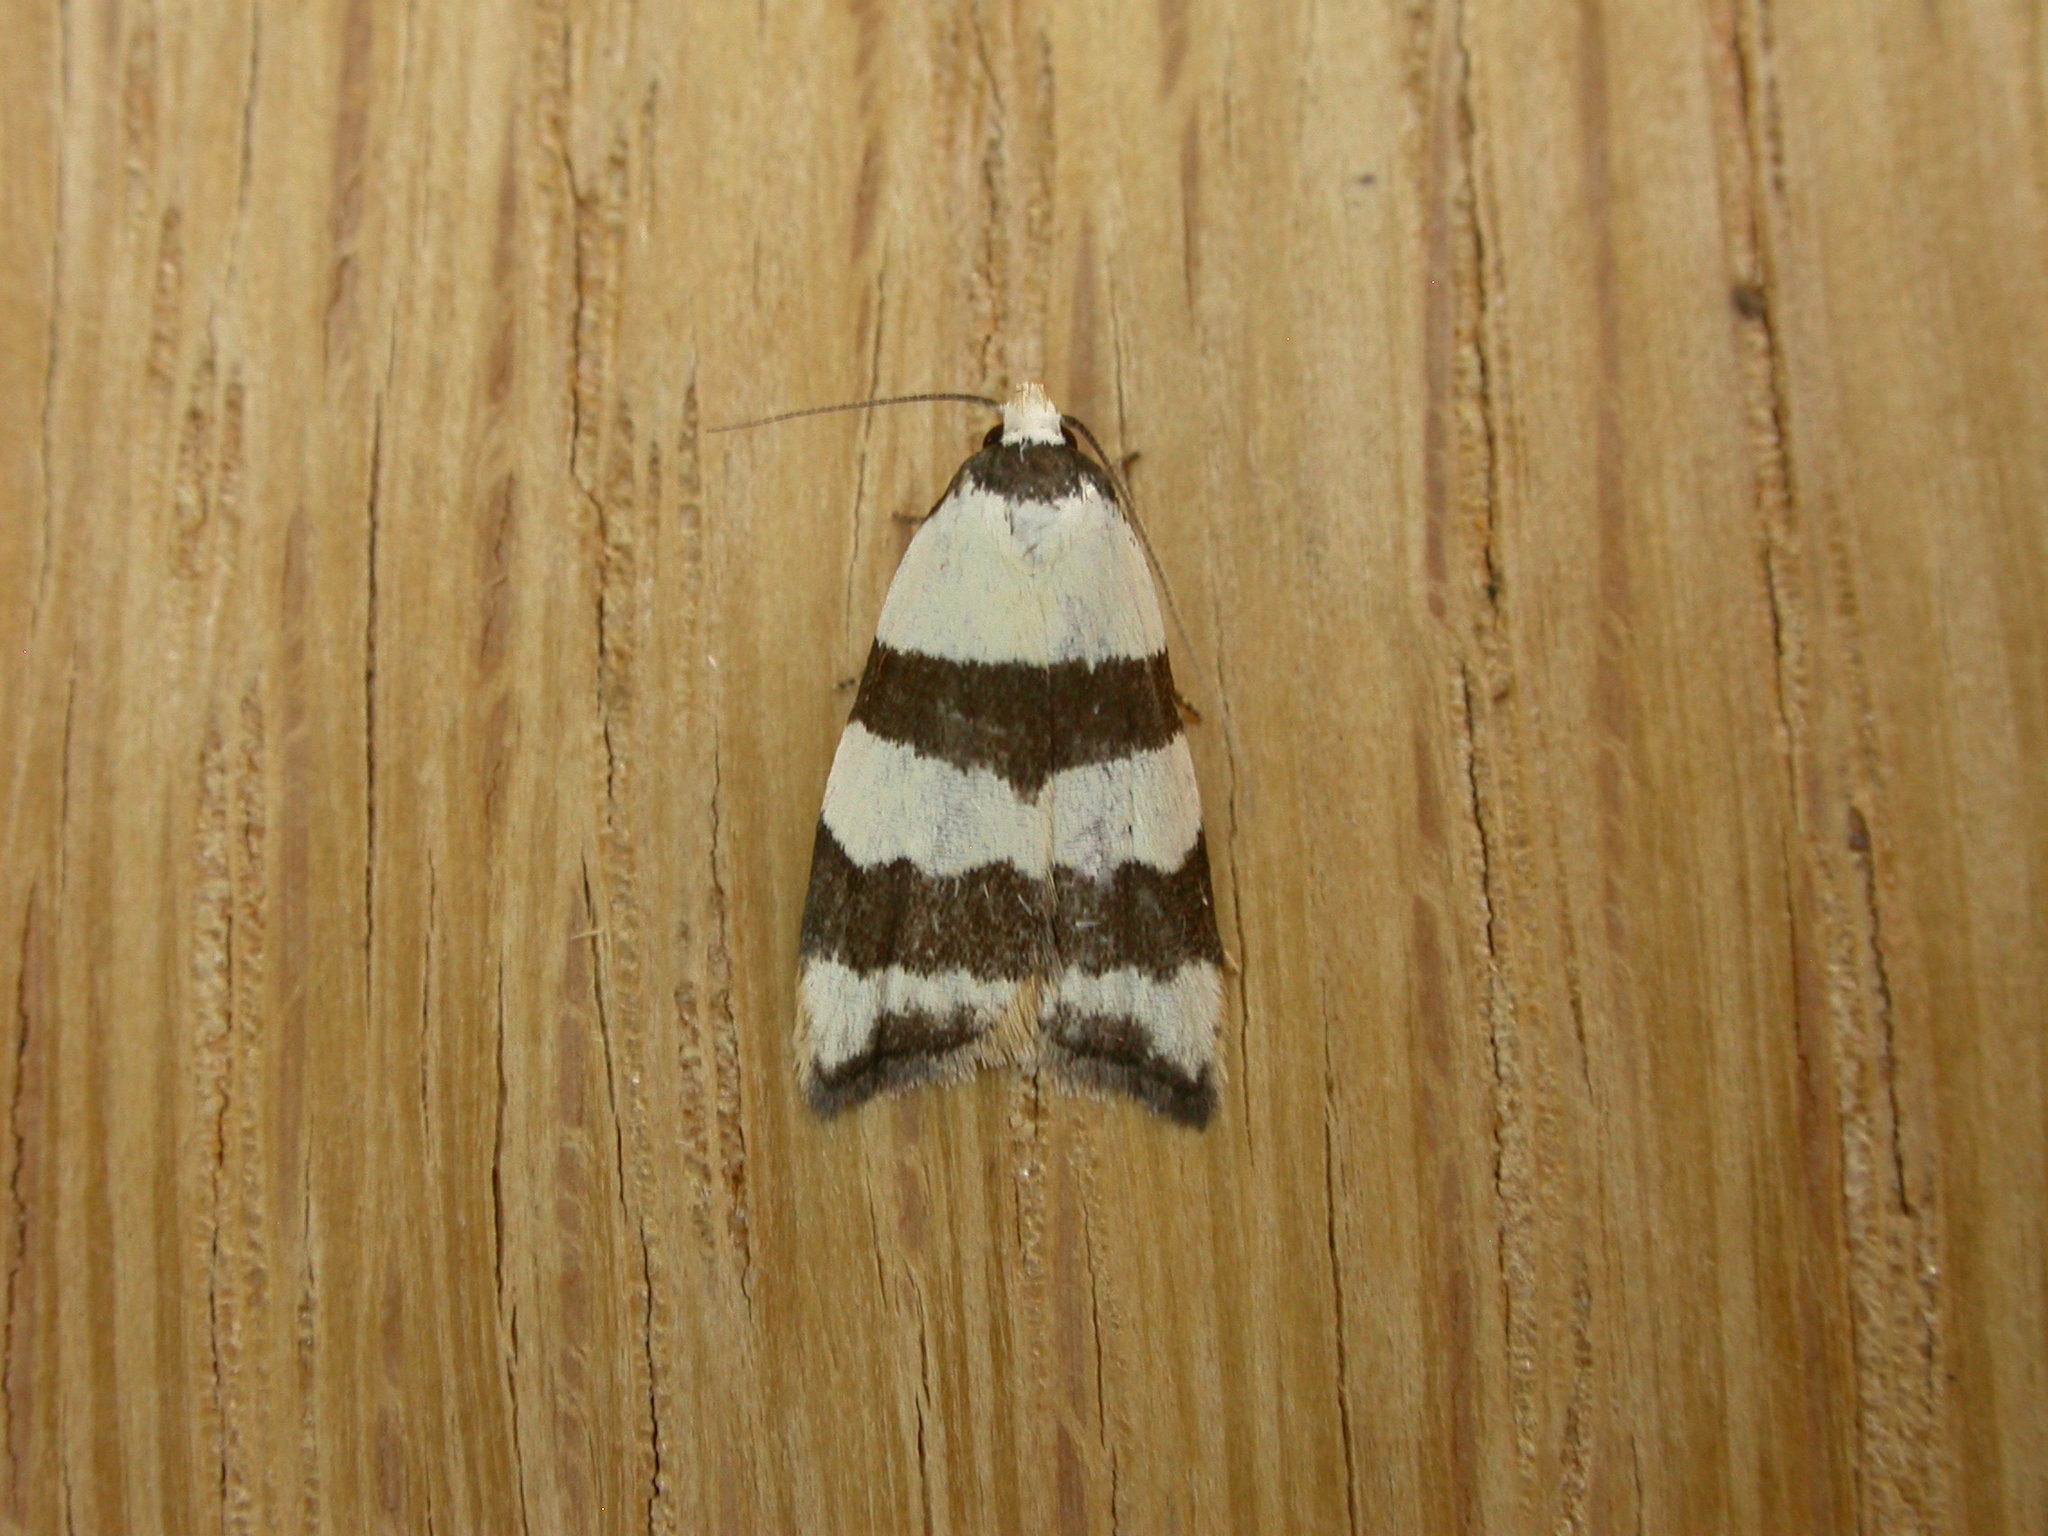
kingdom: Animalia
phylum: Arthropoda
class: Insecta
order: Lepidoptera
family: Oecophoridae
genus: Zonopetala
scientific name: Zonopetala clerota
